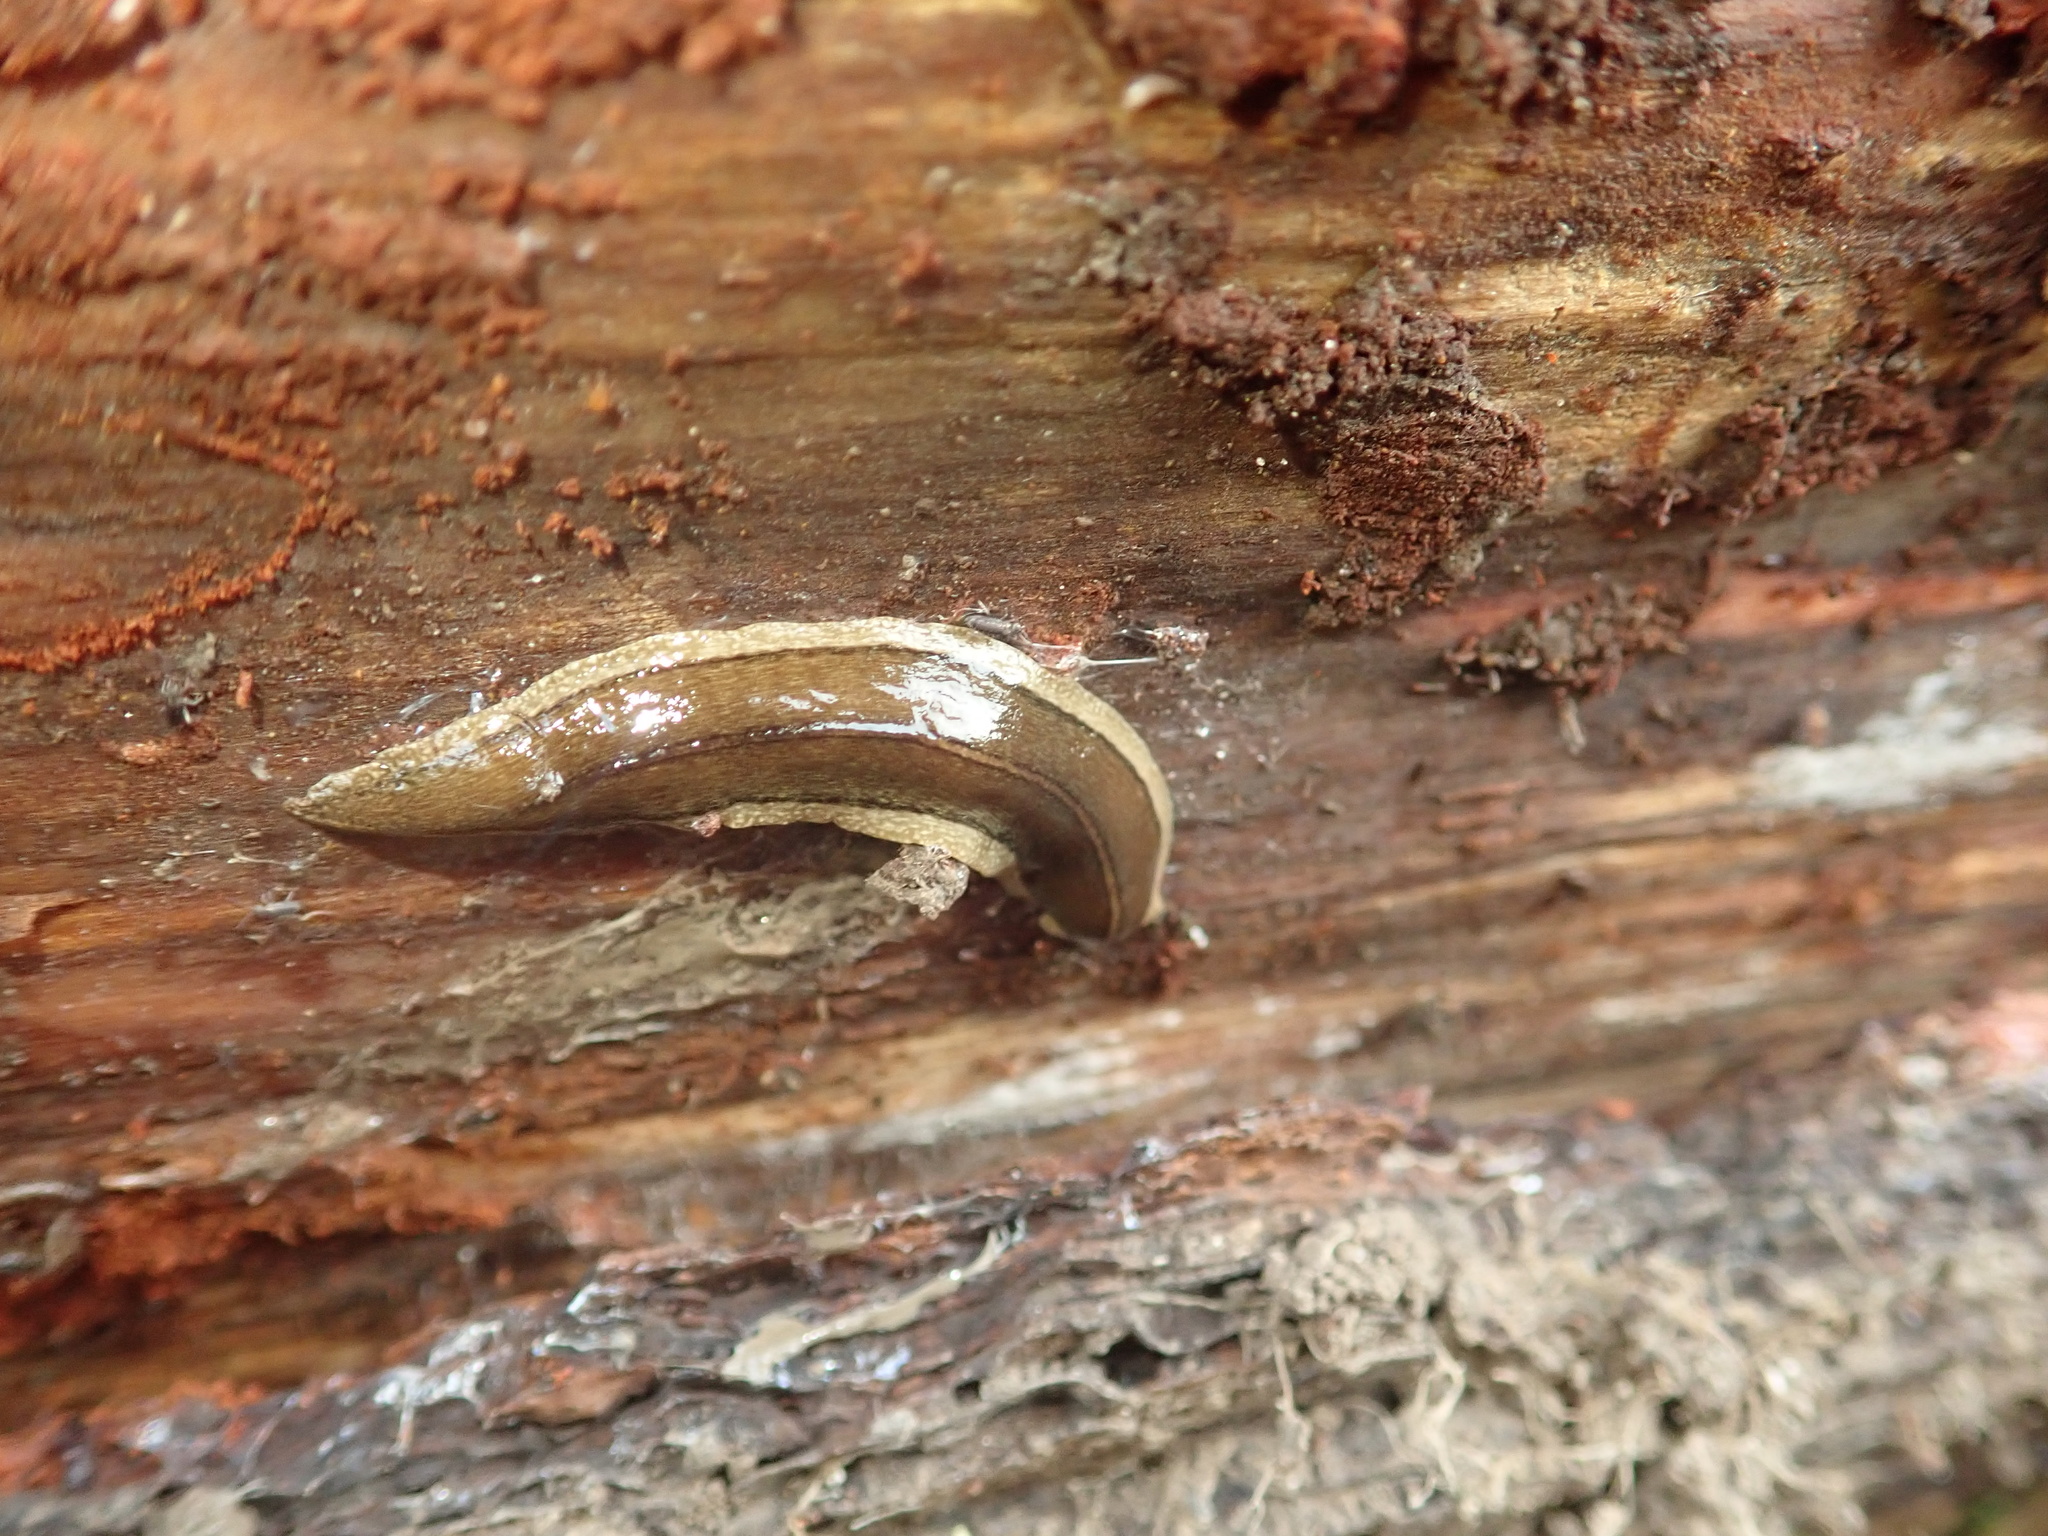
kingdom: Animalia
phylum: Platyhelminthes
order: Tricladida
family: Geoplanidae
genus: Newzealandia
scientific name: Newzealandia graffii
